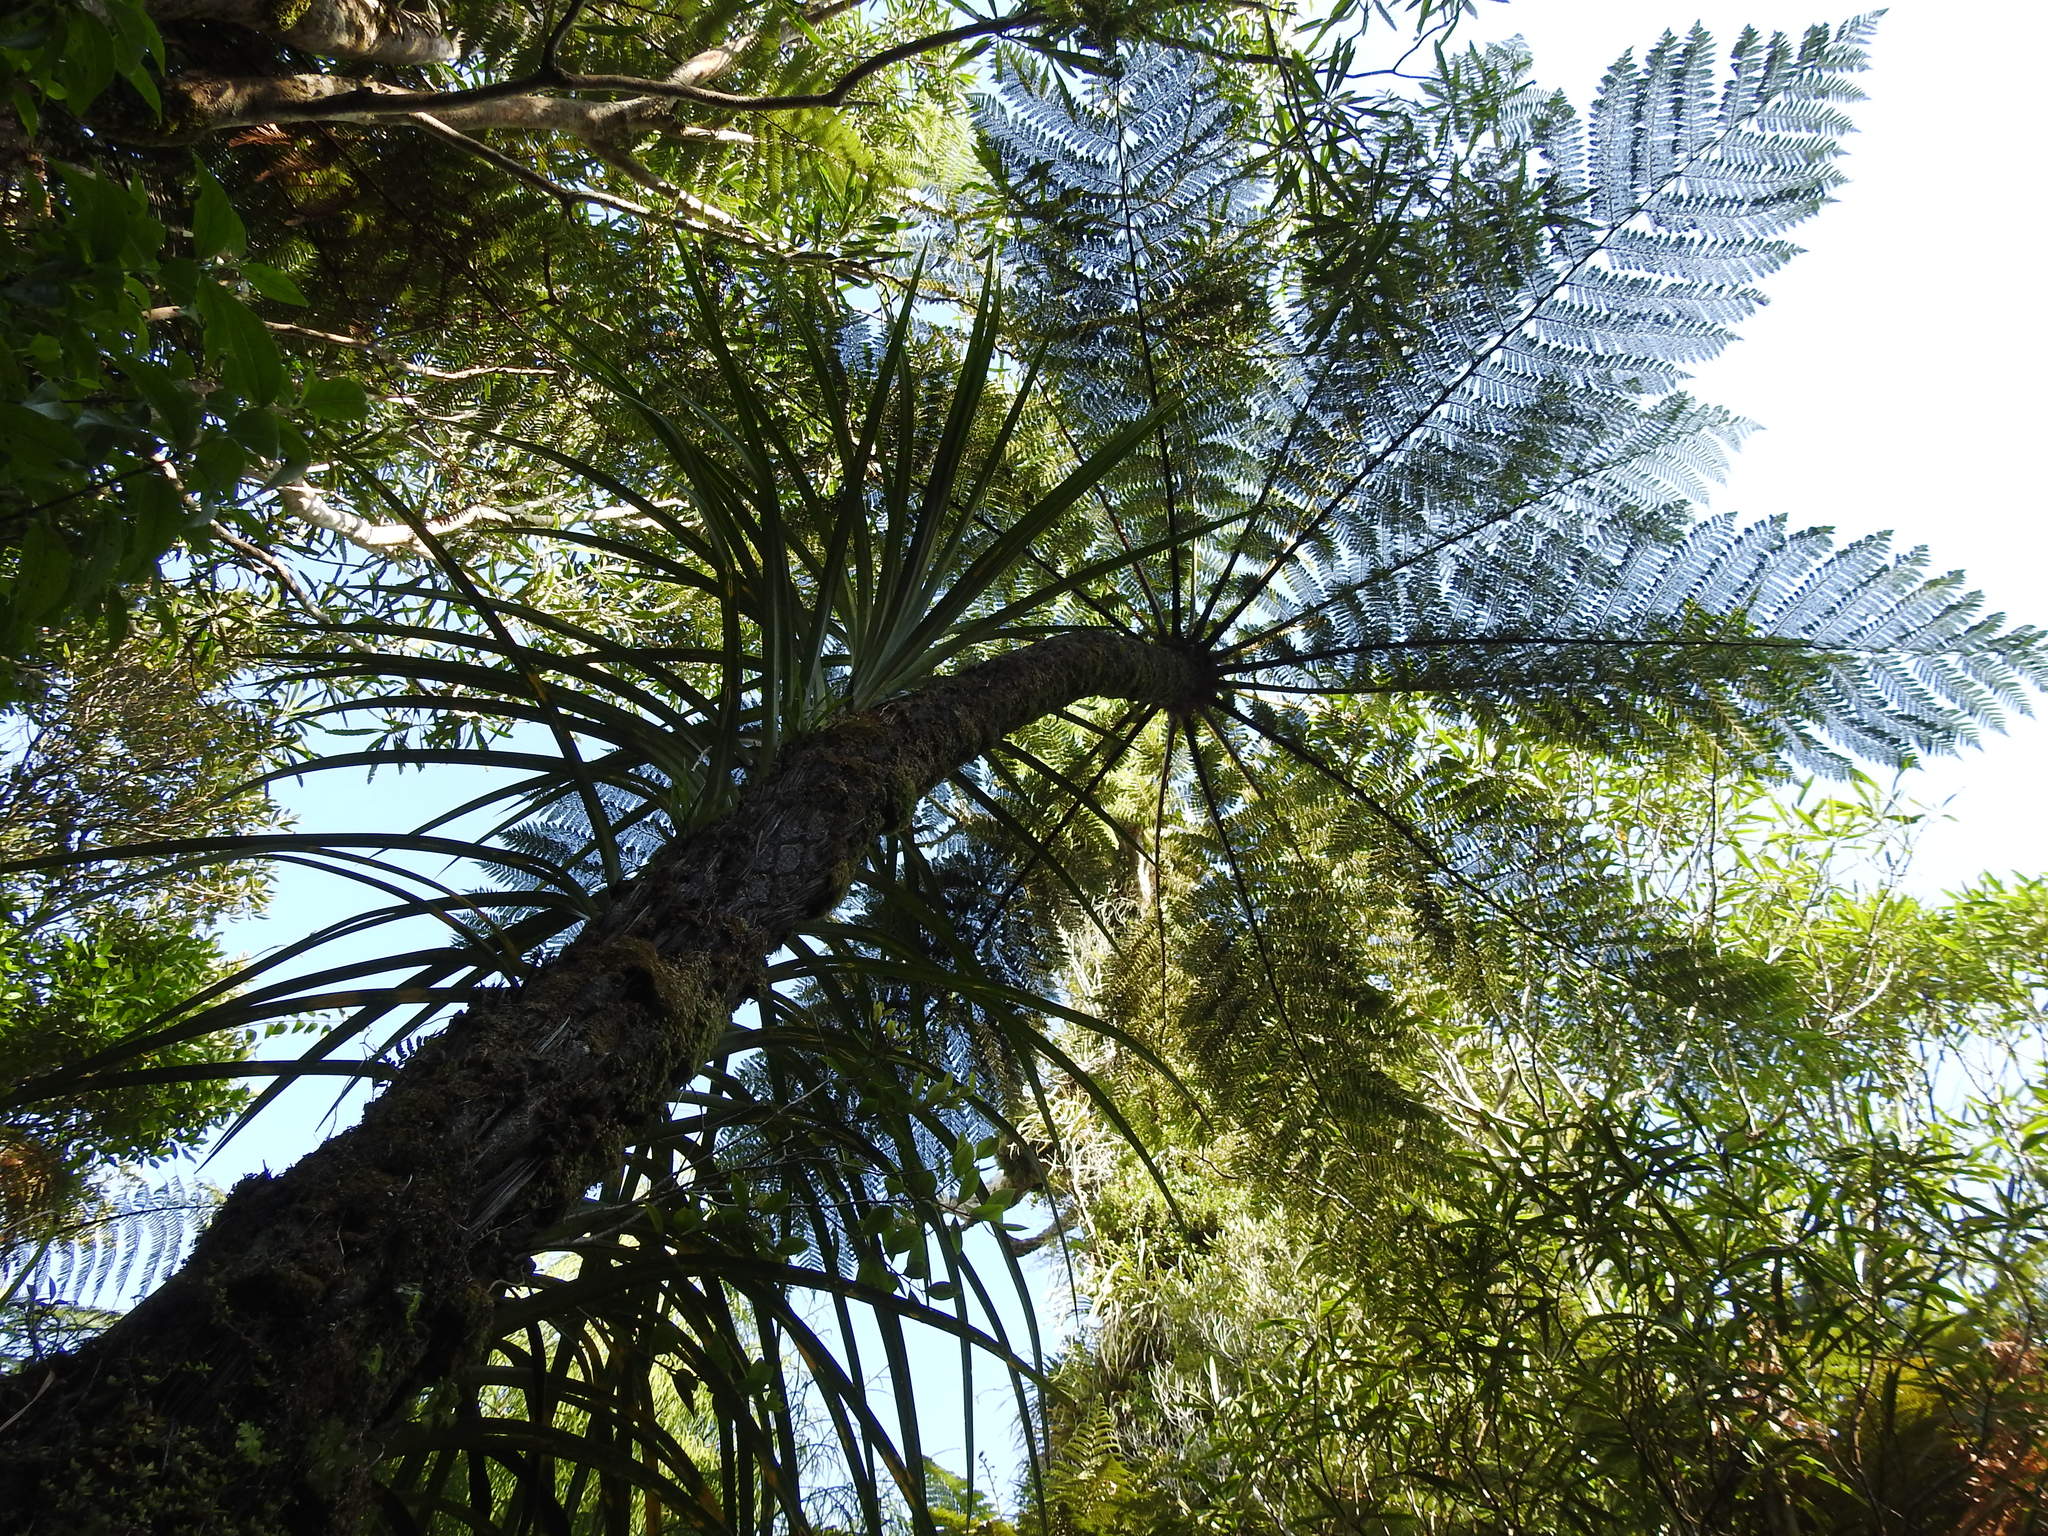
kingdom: Plantae
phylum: Tracheophyta
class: Polypodiopsida
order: Cyatheales
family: Cyatheaceae
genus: Cyathea
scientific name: Cyathea cunninghamii
